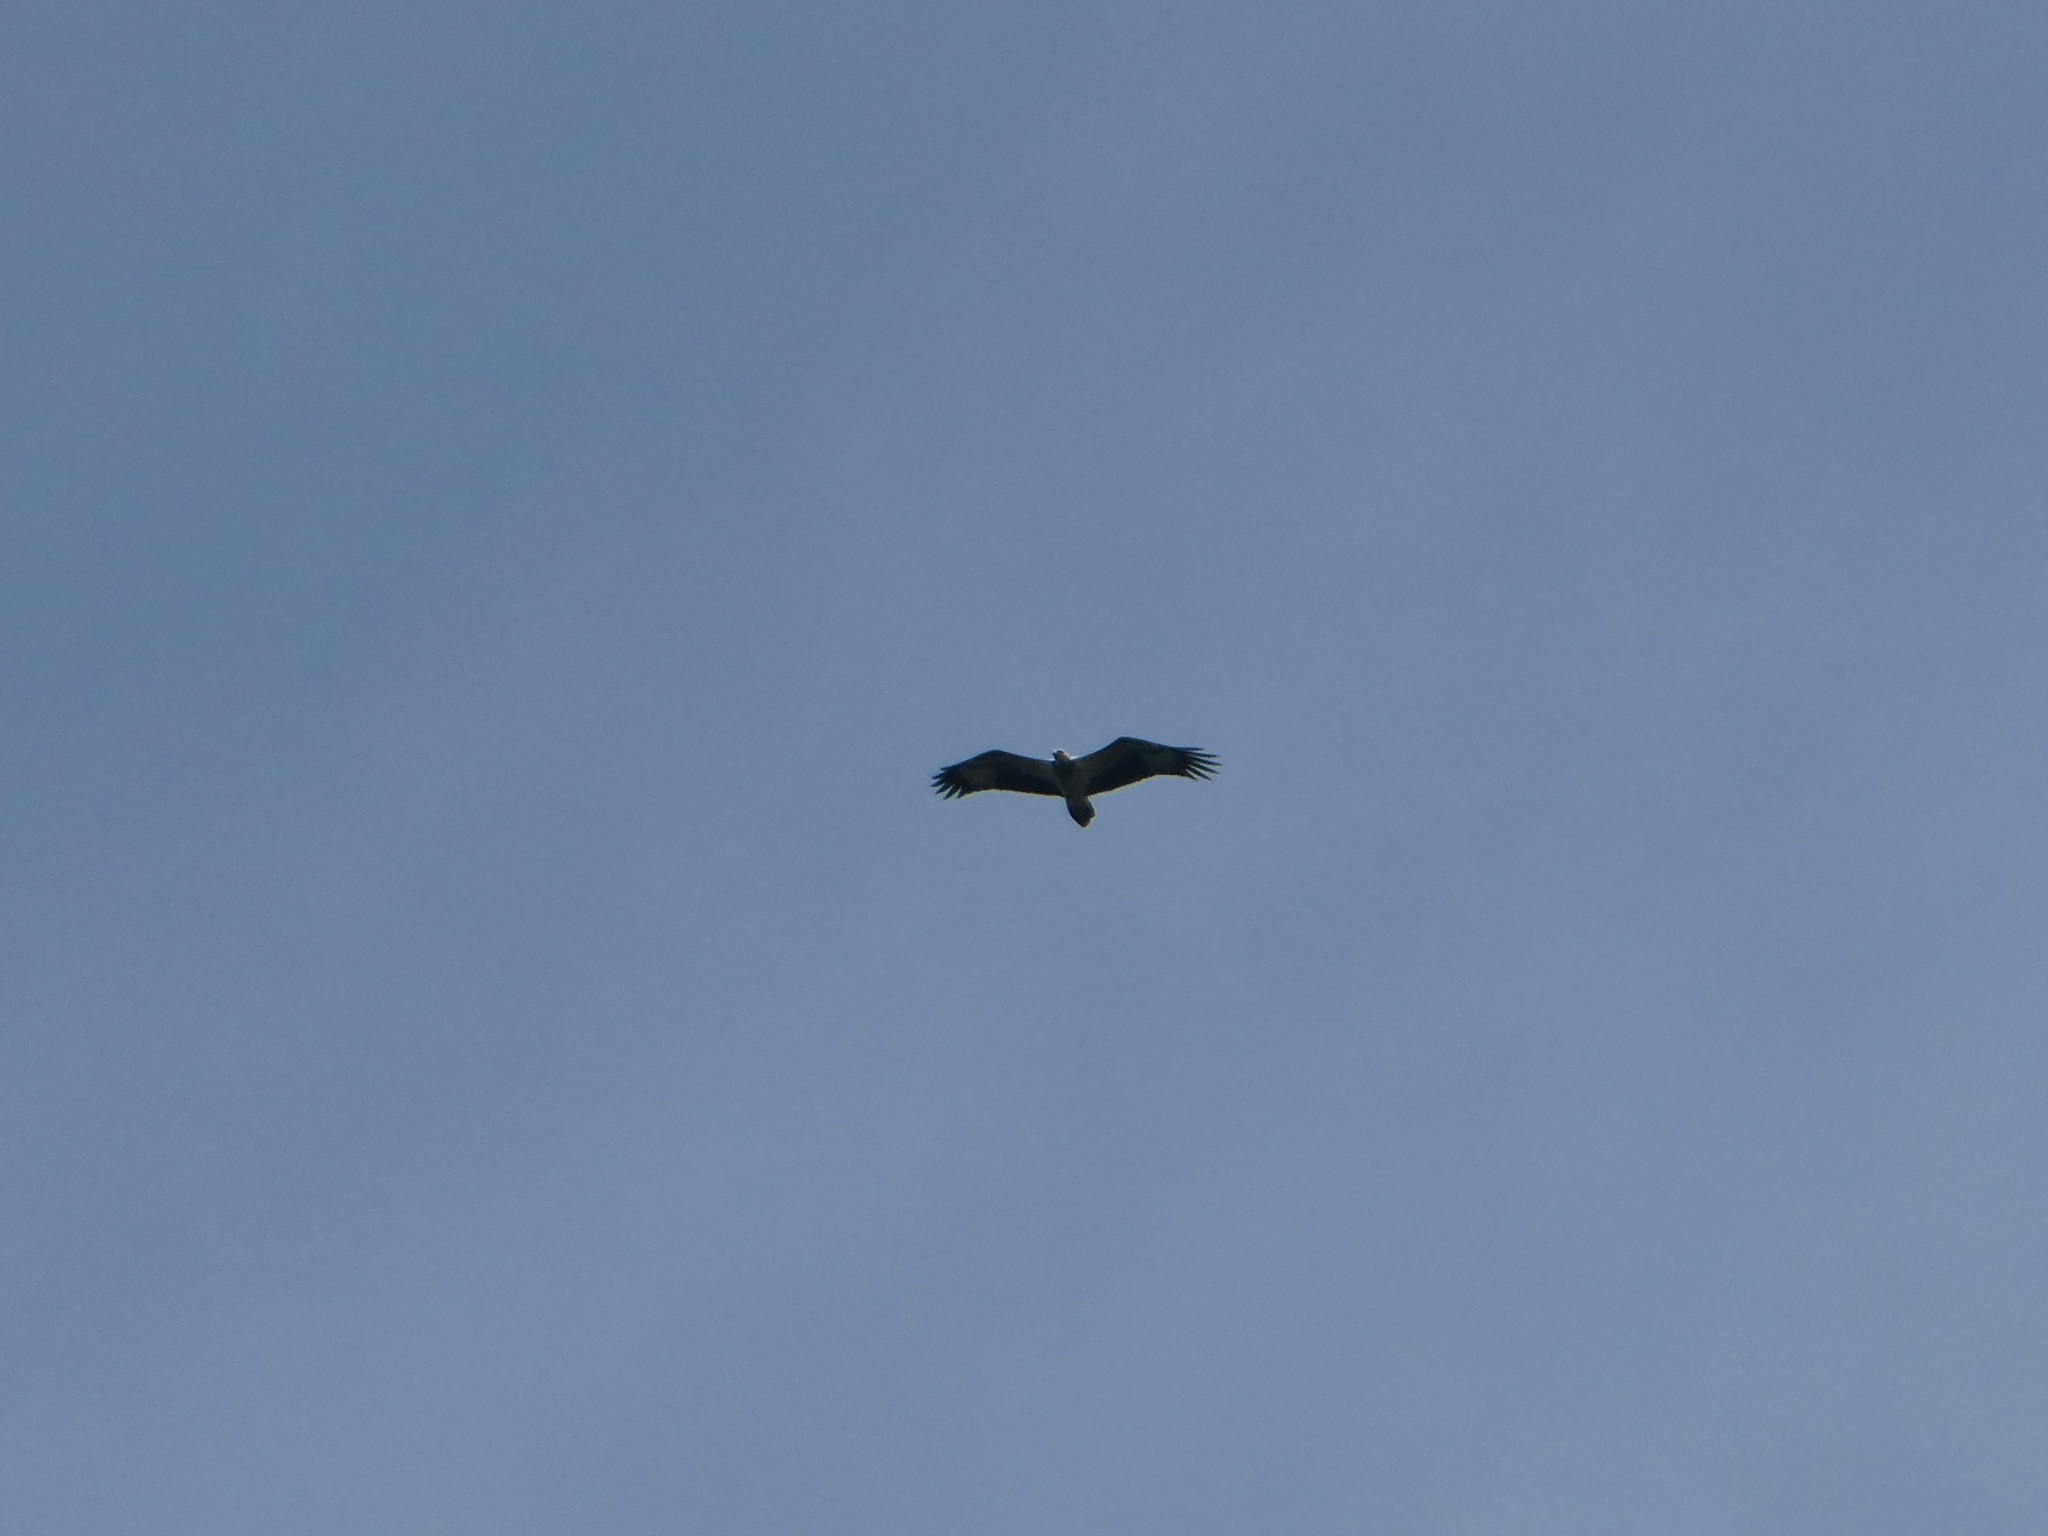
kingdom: Animalia
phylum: Chordata
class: Aves
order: Accipitriformes
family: Accipitridae
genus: Haliaeetus
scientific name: Haliaeetus leucogaster
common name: White-bellied sea eagle
